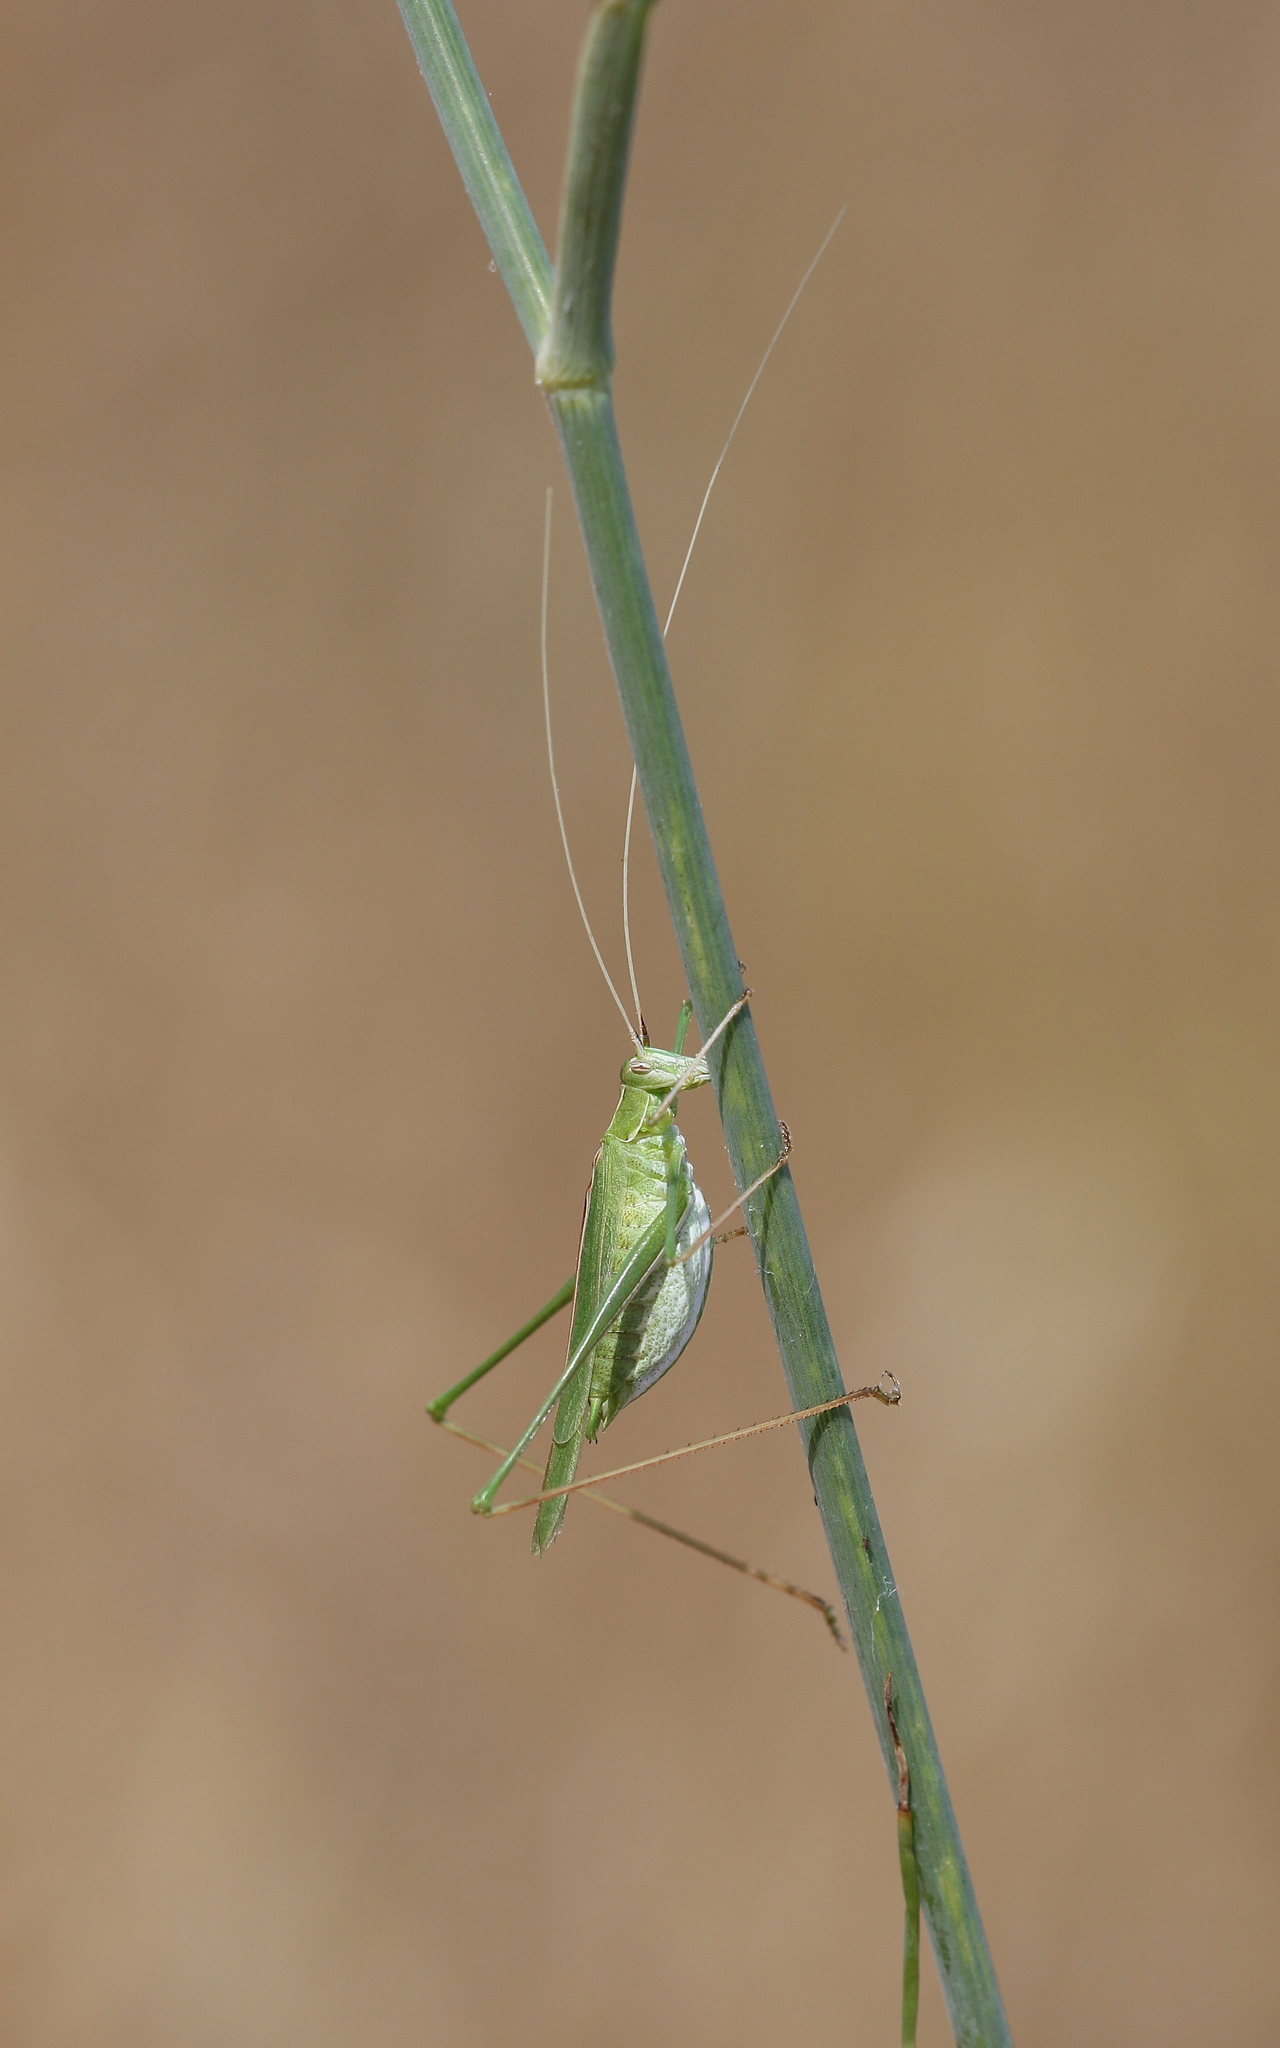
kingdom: Animalia
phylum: Arthropoda
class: Insecta
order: Orthoptera
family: Tettigoniidae
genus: Tylopsis
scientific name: Tylopsis lilifolia
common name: Lily bush-cricket
